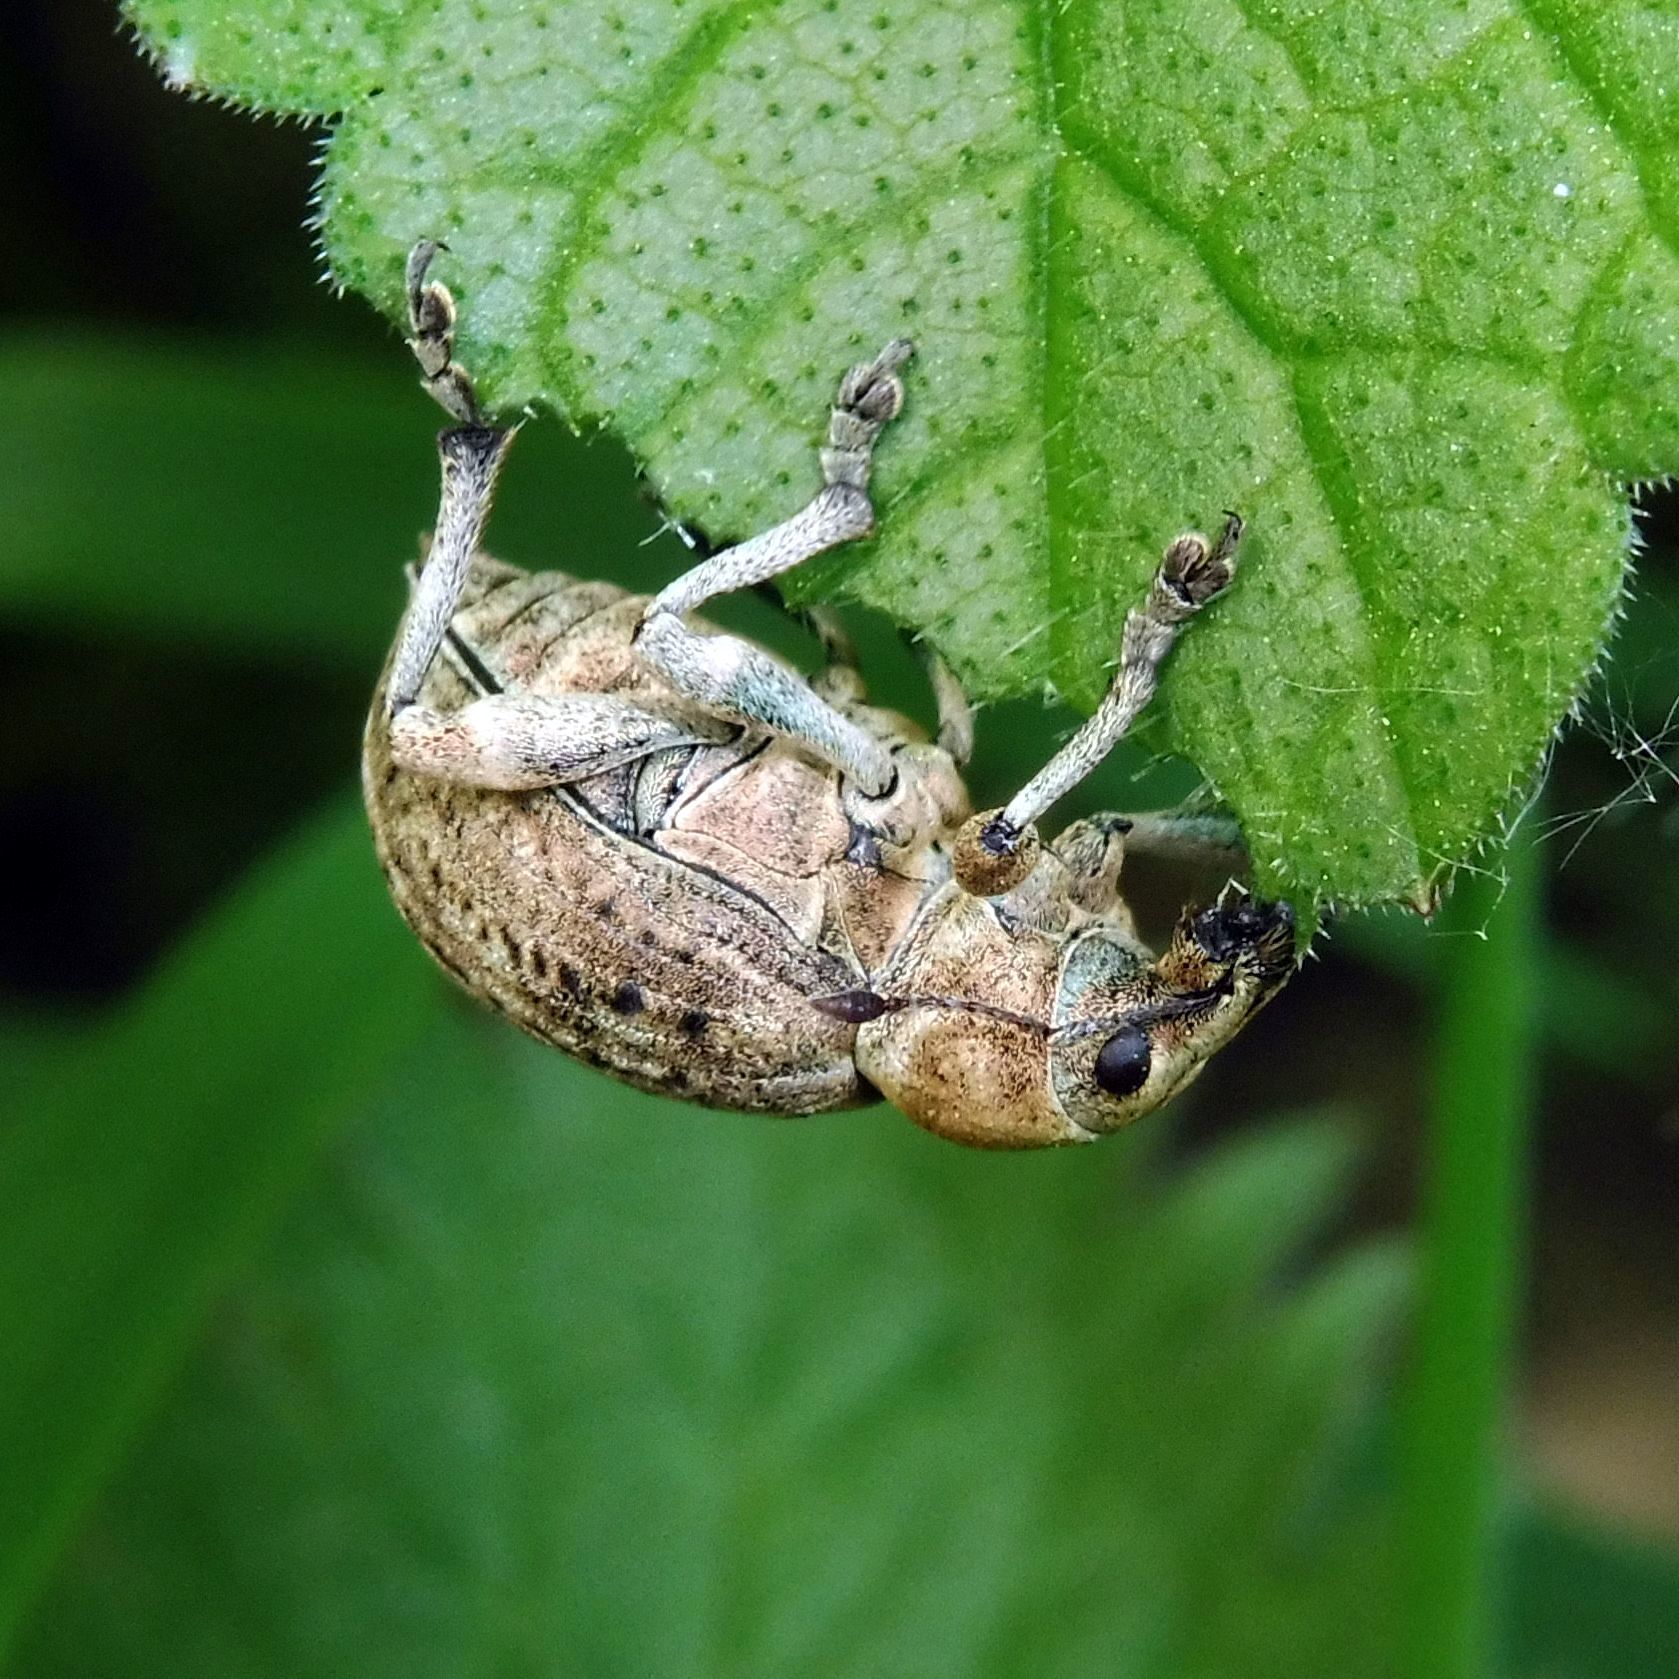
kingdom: Animalia
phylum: Arthropoda
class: Insecta
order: Coleoptera
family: Curculionidae
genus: Liophloeus
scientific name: Liophloeus tessulatus
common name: Weevil
